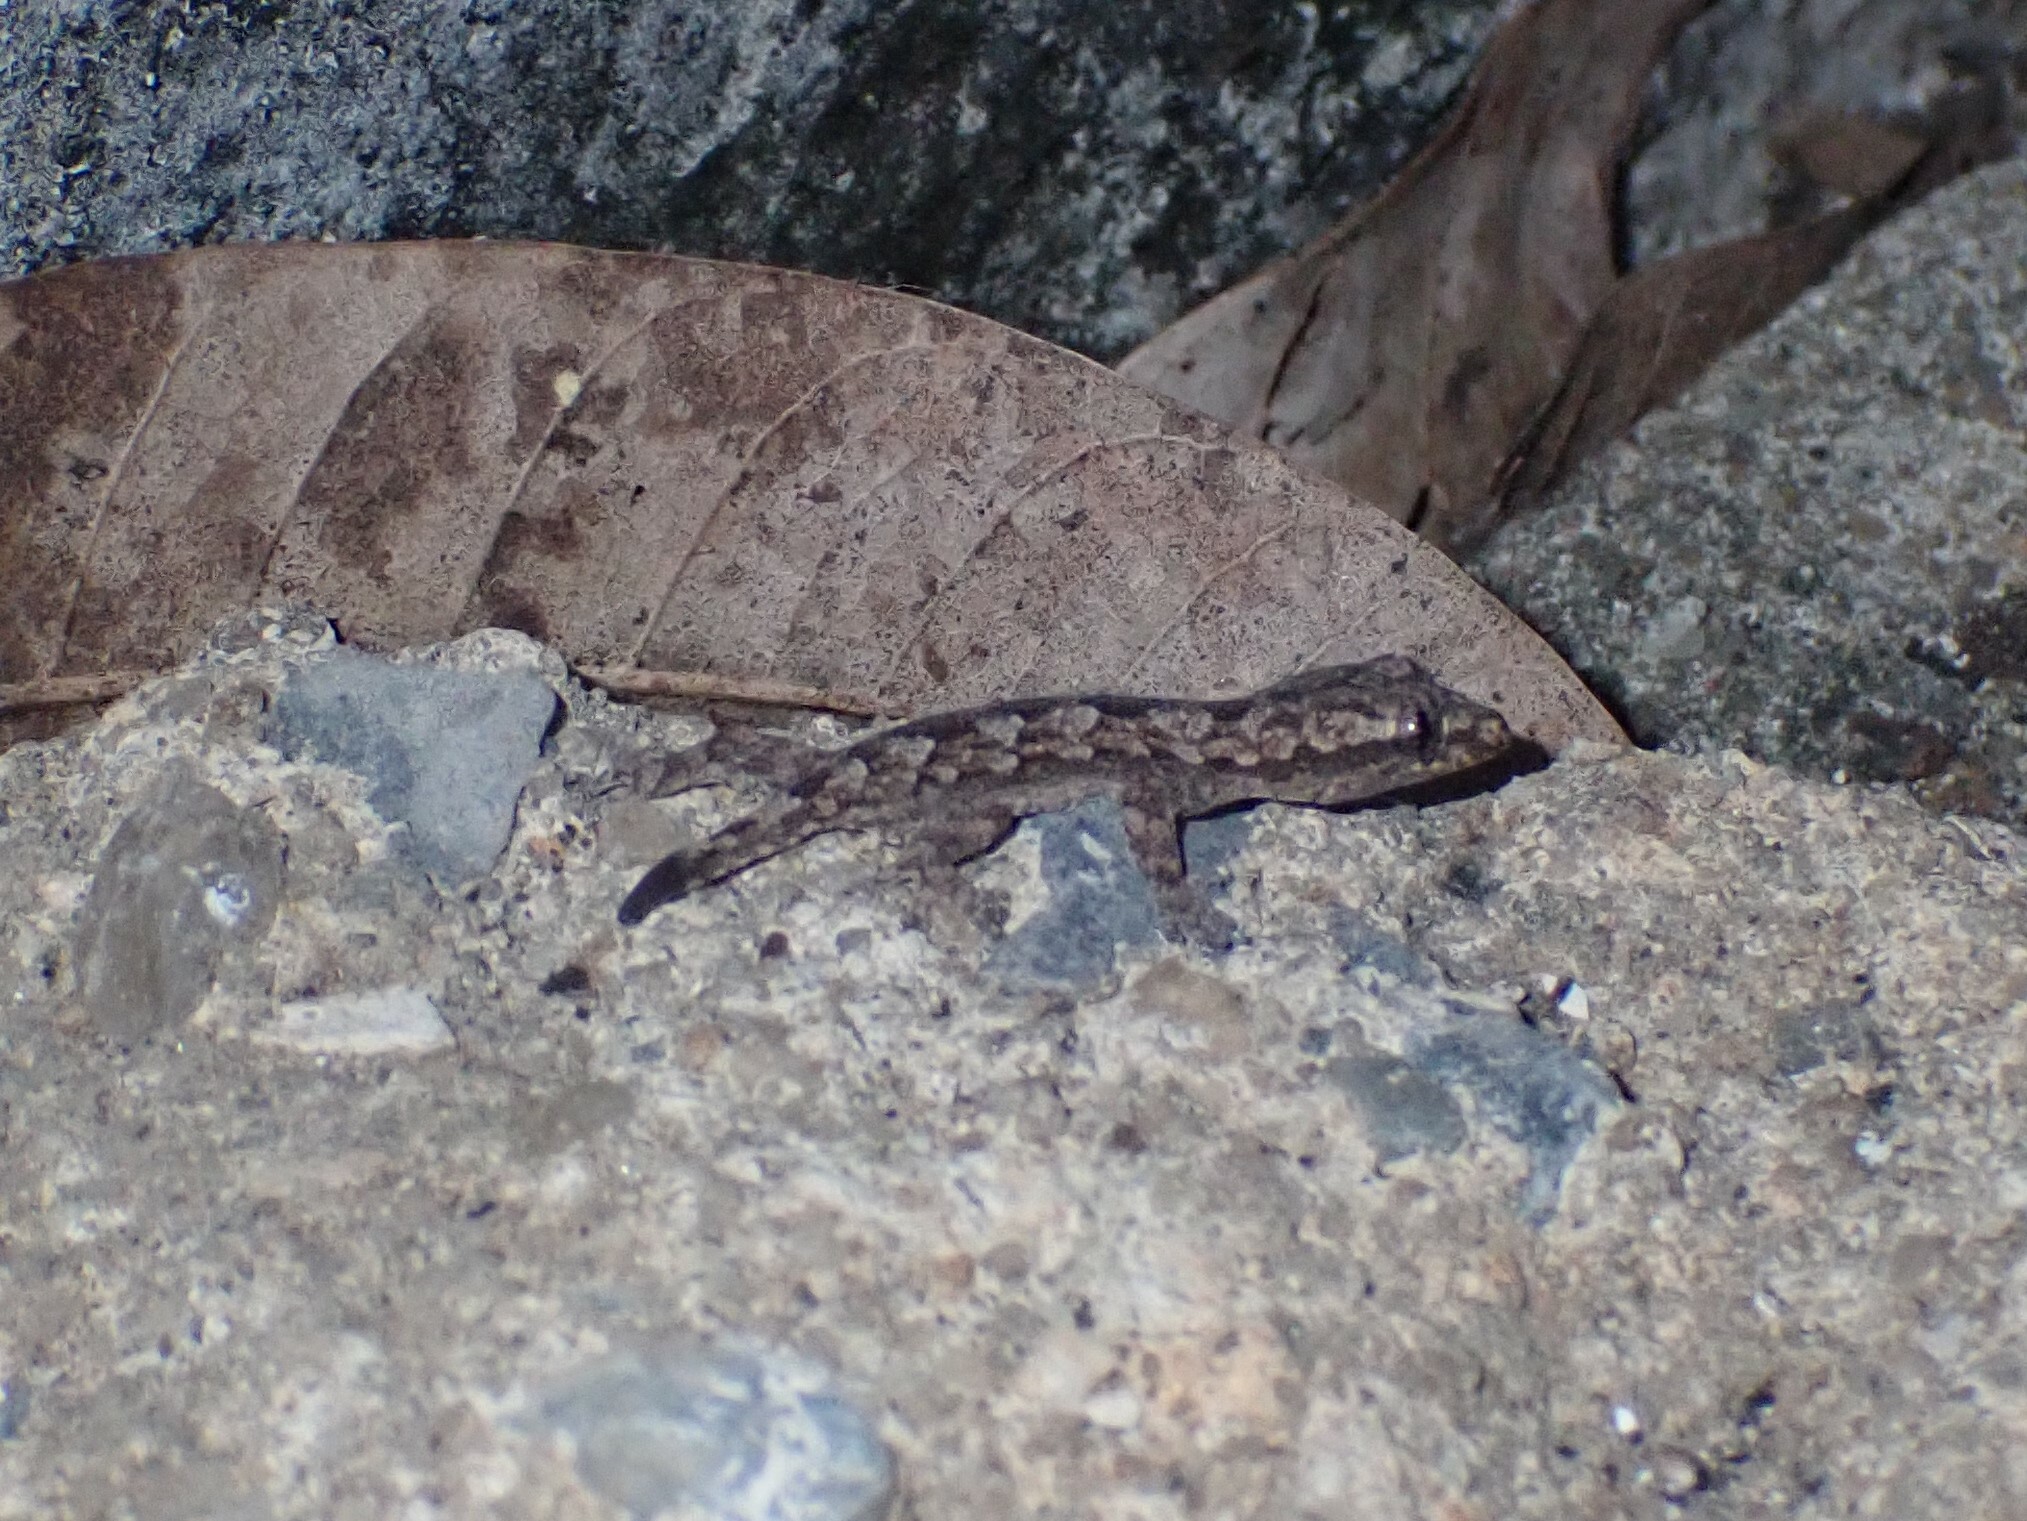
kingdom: Animalia
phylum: Chordata
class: Squamata
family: Gekkonidae
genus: Hemidactylus
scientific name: Hemidactylus platyurus
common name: Flat-tailed house gecko
